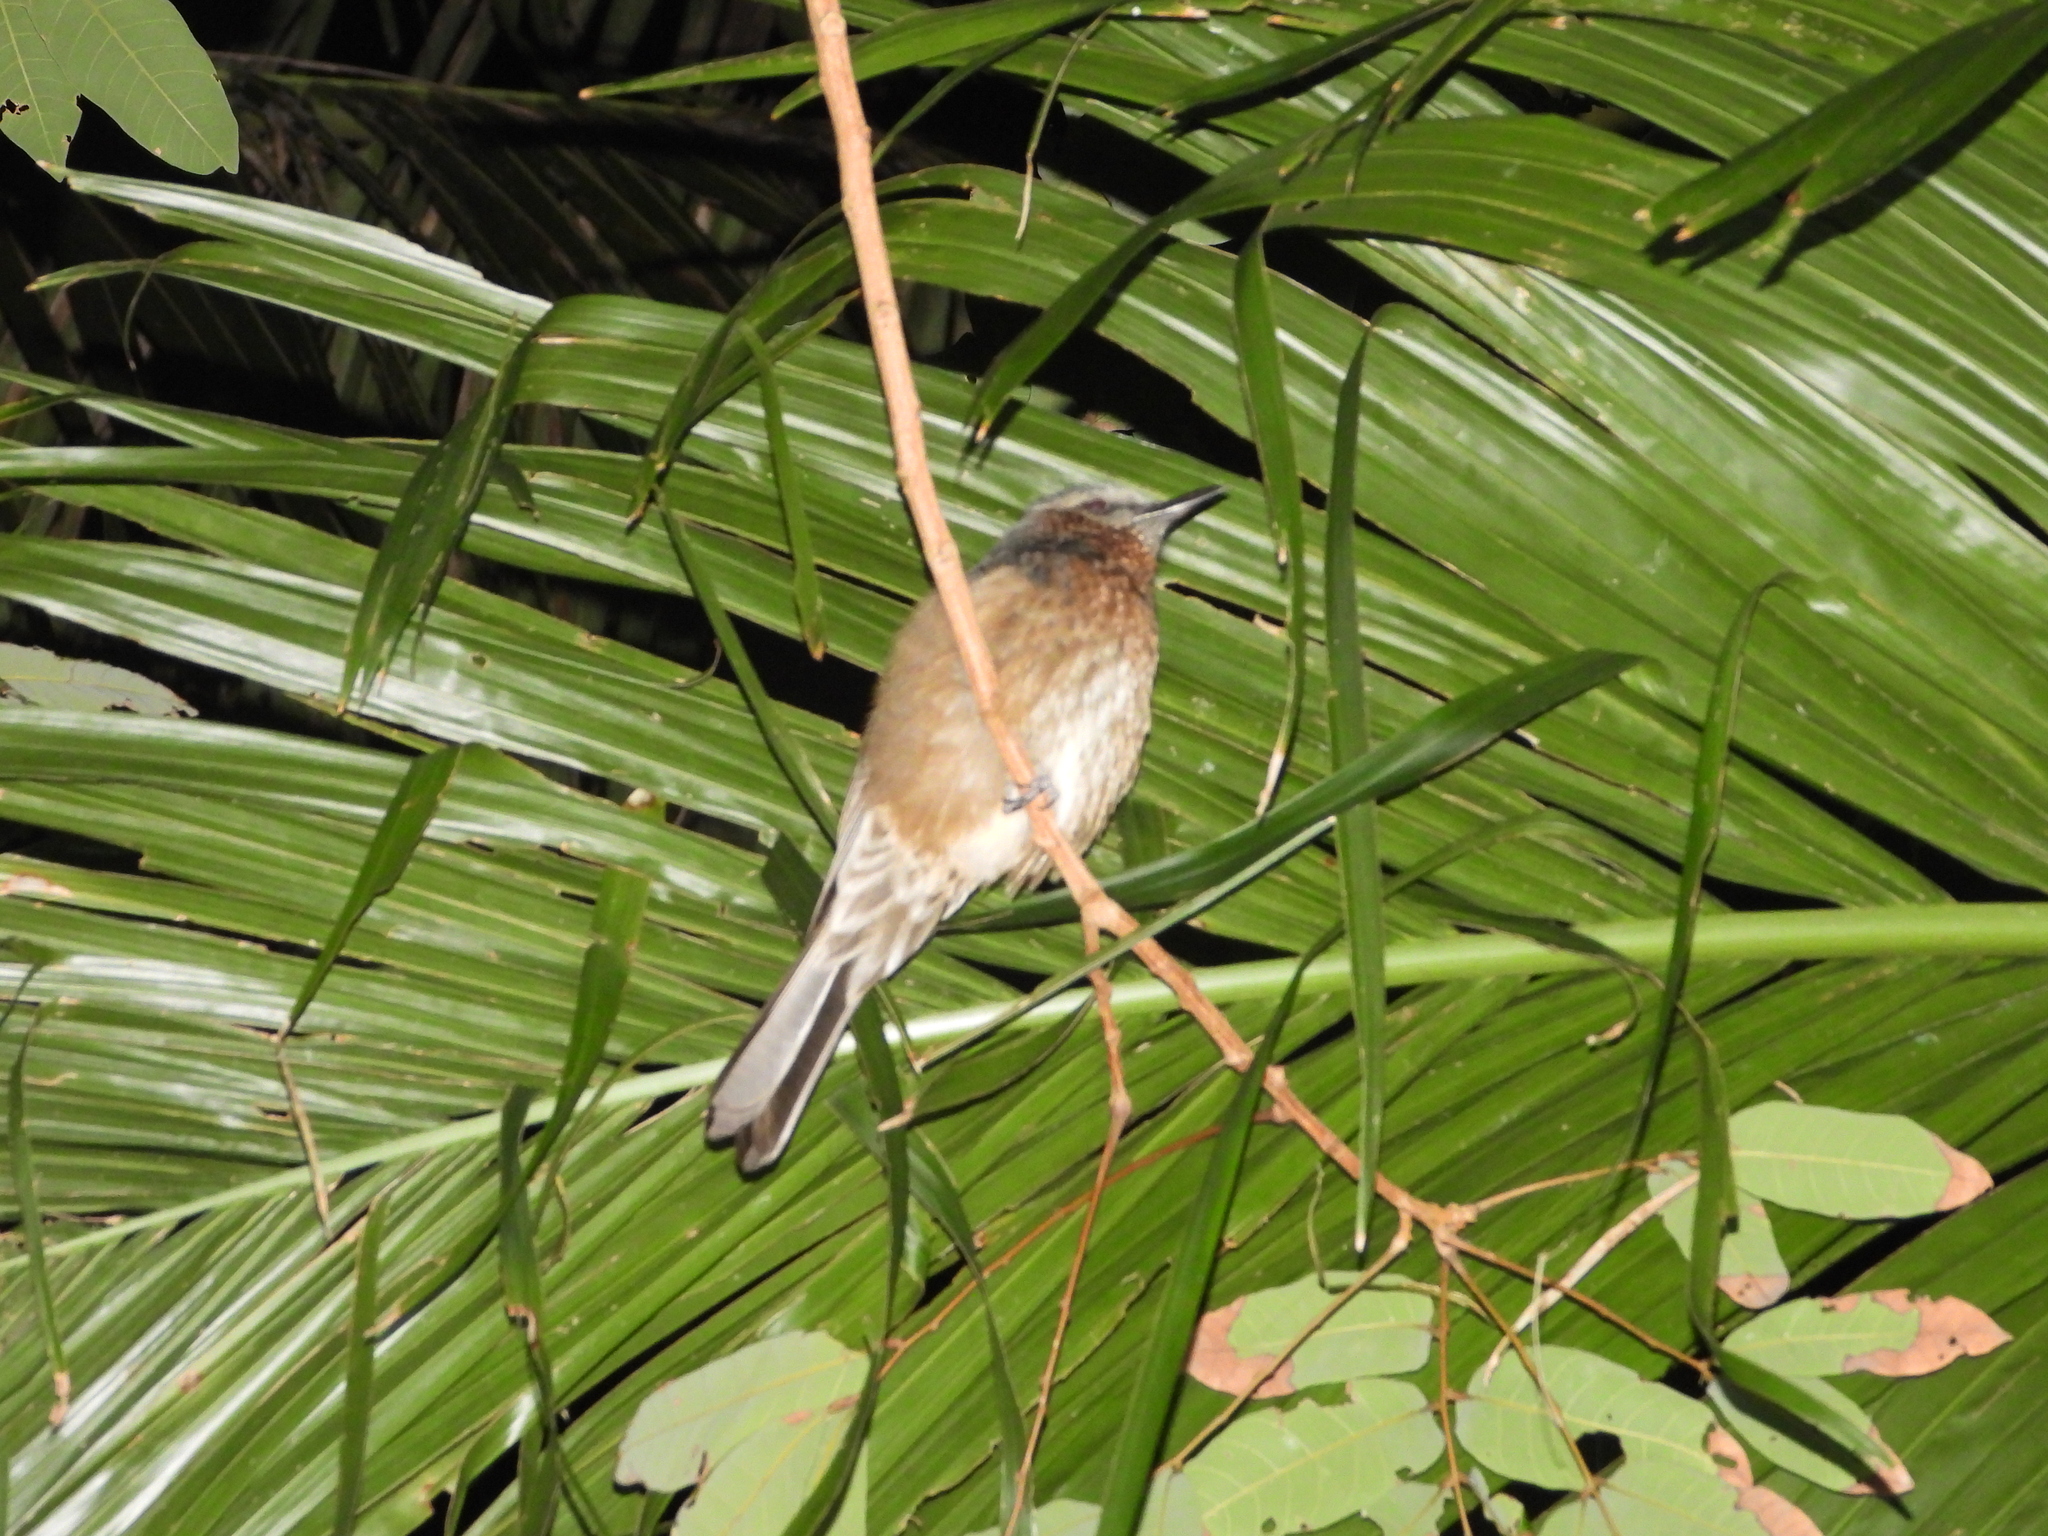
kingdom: Animalia
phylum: Chordata
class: Aves
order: Passeriformes
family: Pycnonotidae
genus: Hypsipetes
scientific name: Hypsipetes amaurotis
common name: Brown-eared bulbul
